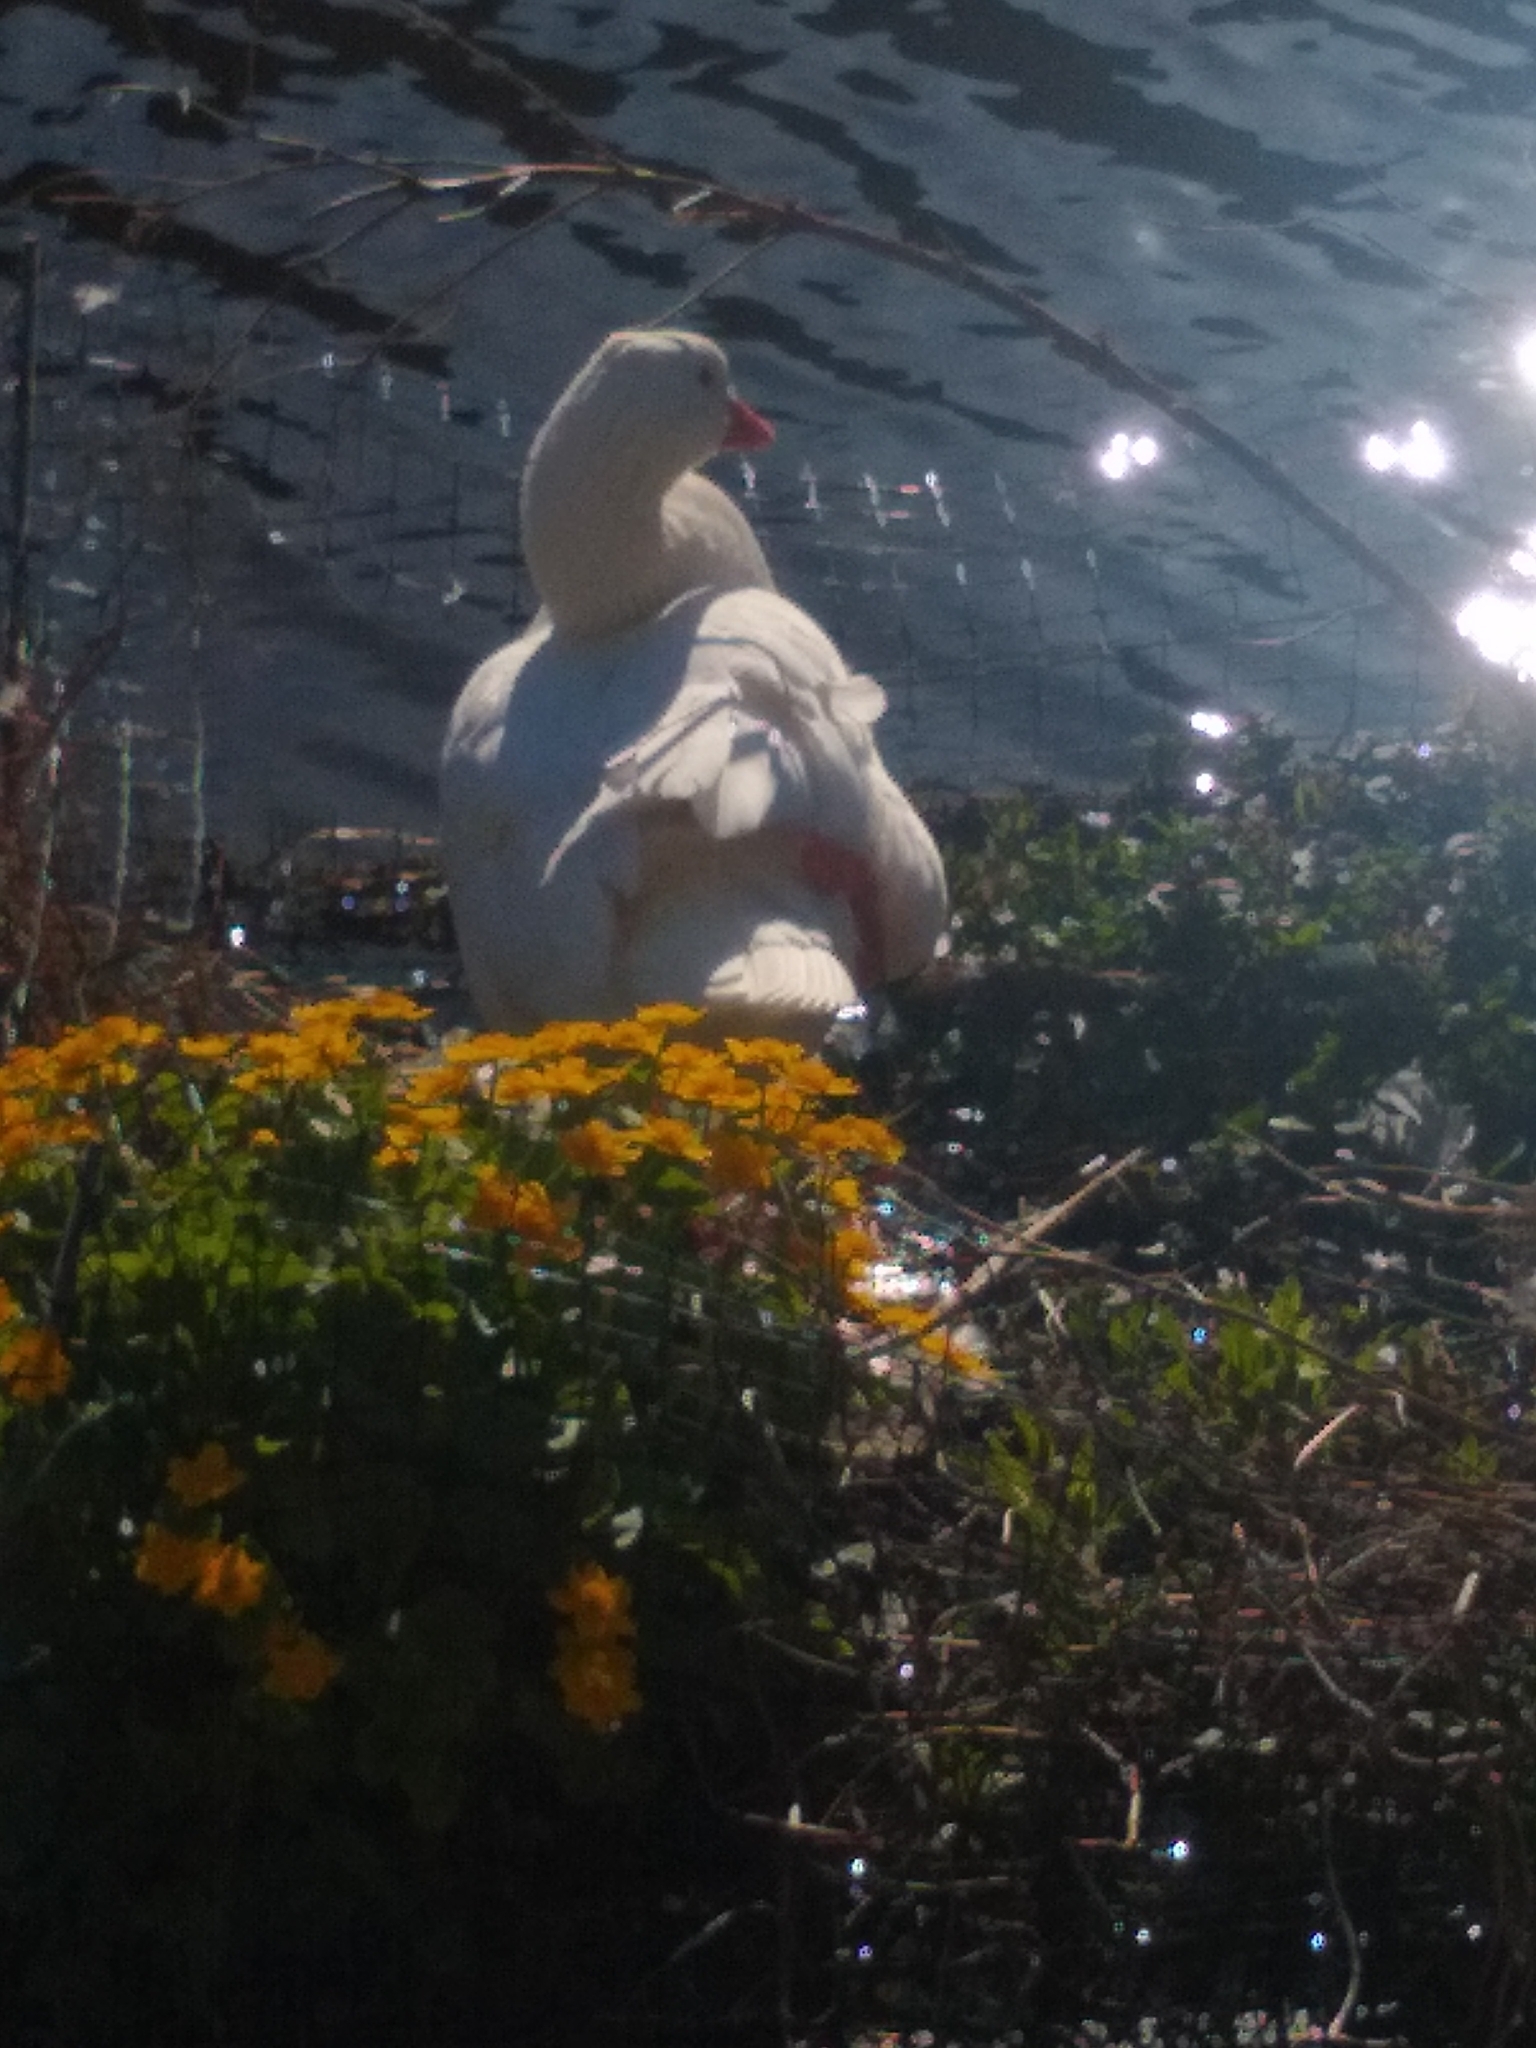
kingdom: Animalia
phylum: Chordata
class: Aves
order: Anseriformes
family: Anatidae
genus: Anas
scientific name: Anas platyrhynchos
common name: Mallard
